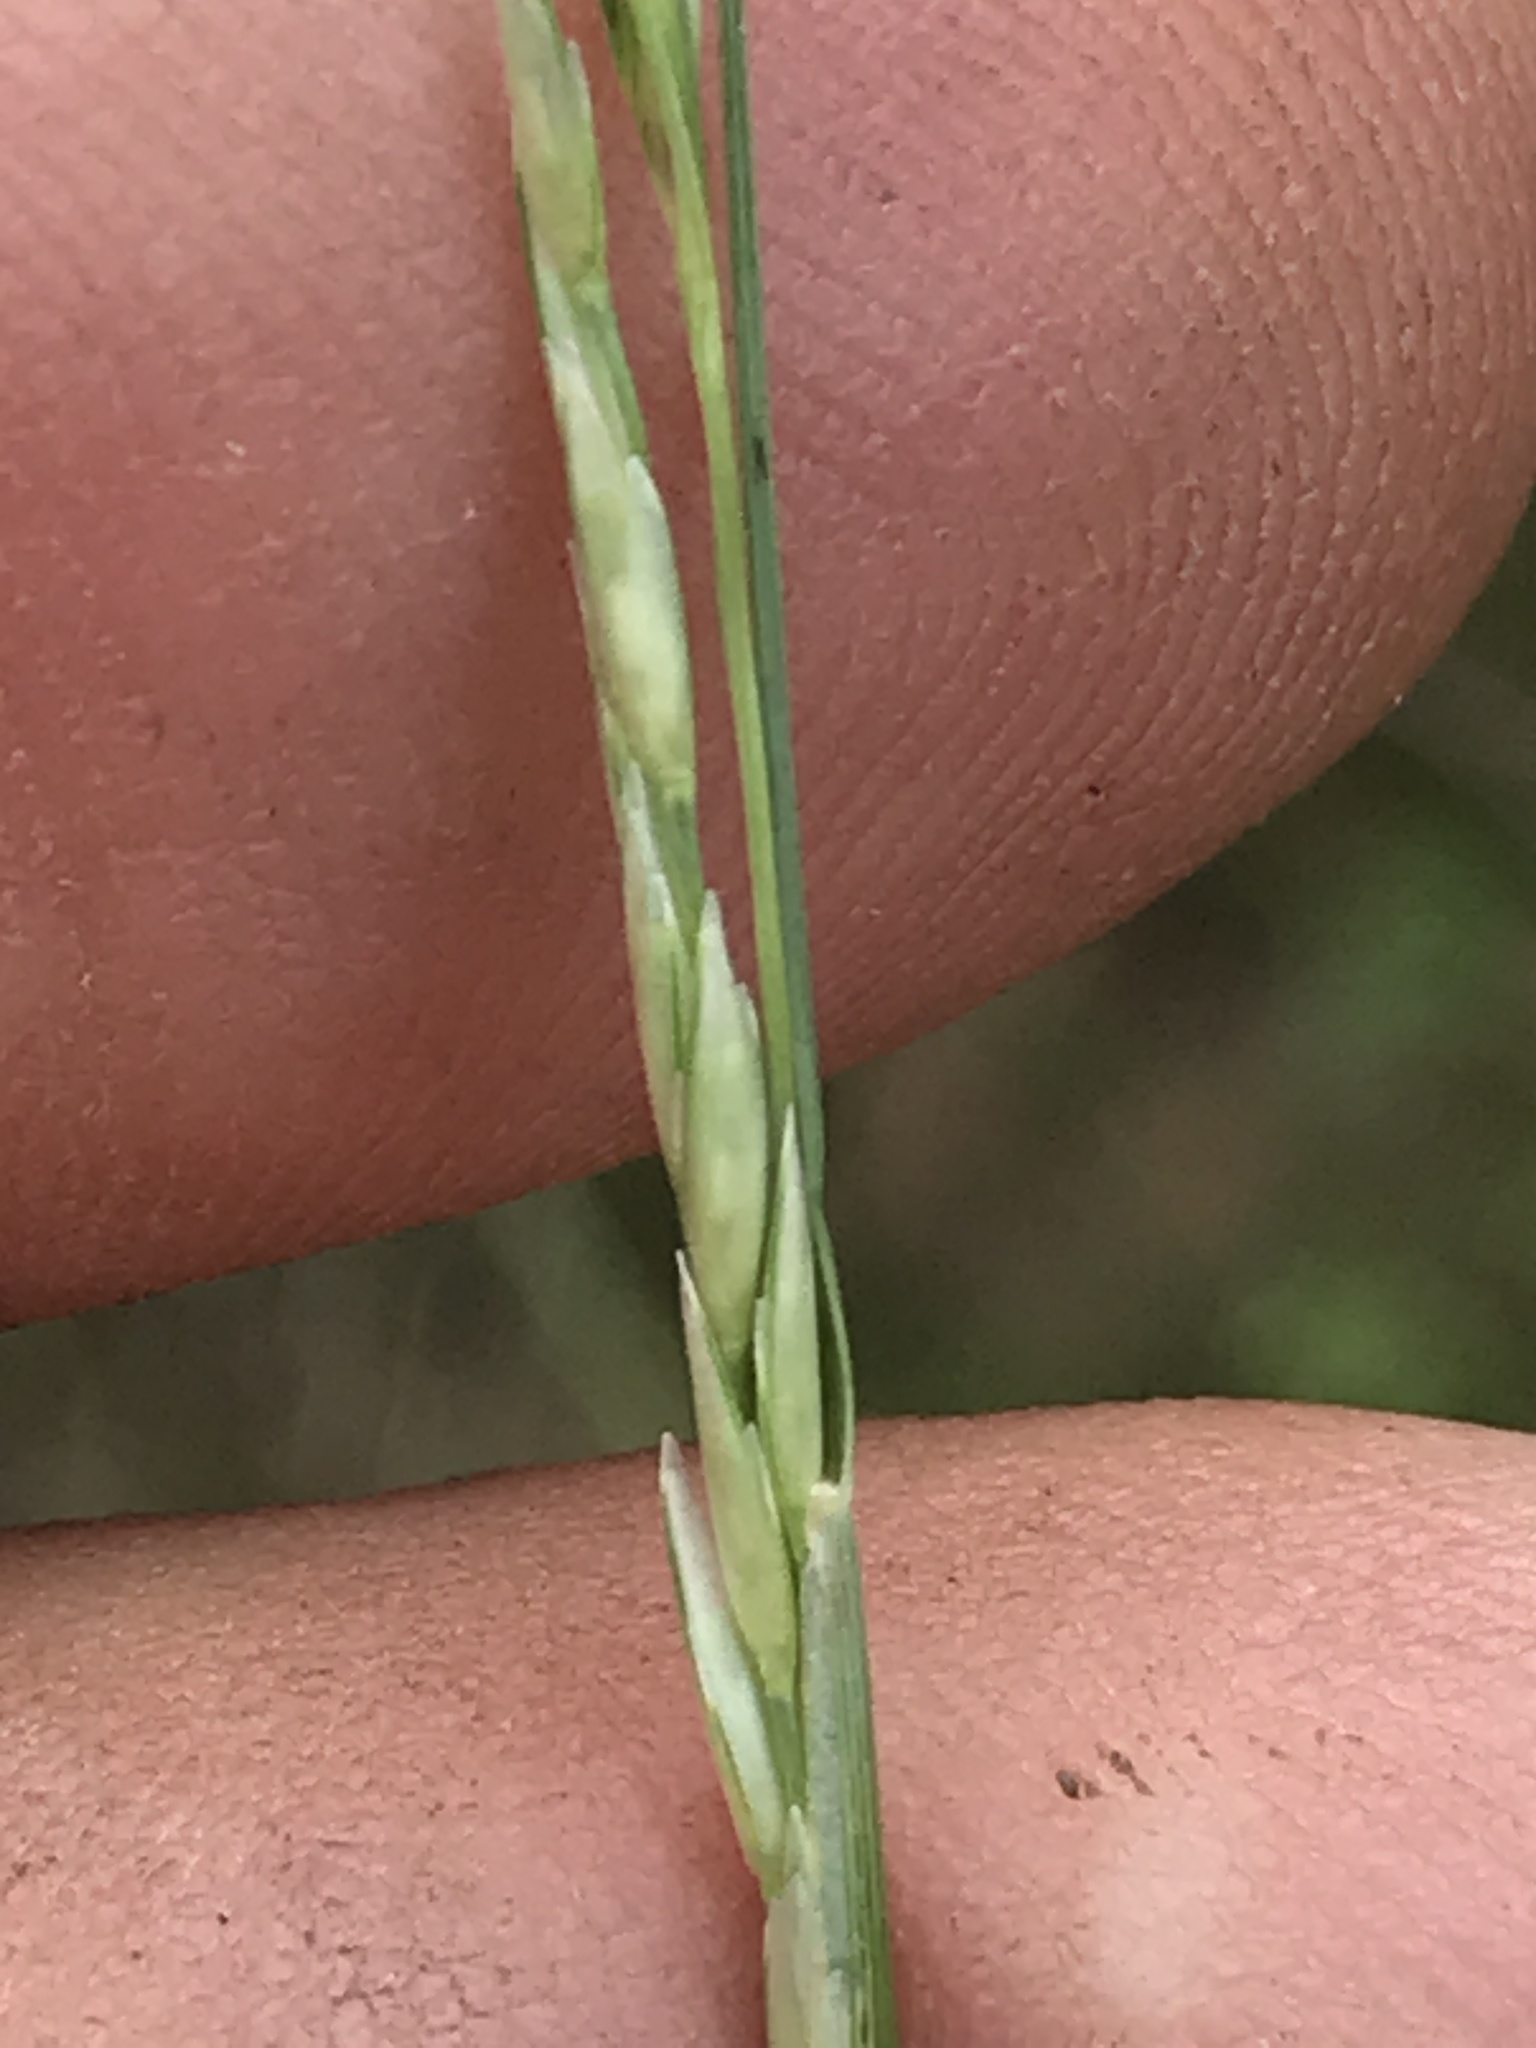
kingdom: Plantae
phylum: Tracheophyta
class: Liliopsida
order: Poales
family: Poaceae
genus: Sporobolus
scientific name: Sporobolus compositus
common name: Rough dropseed
